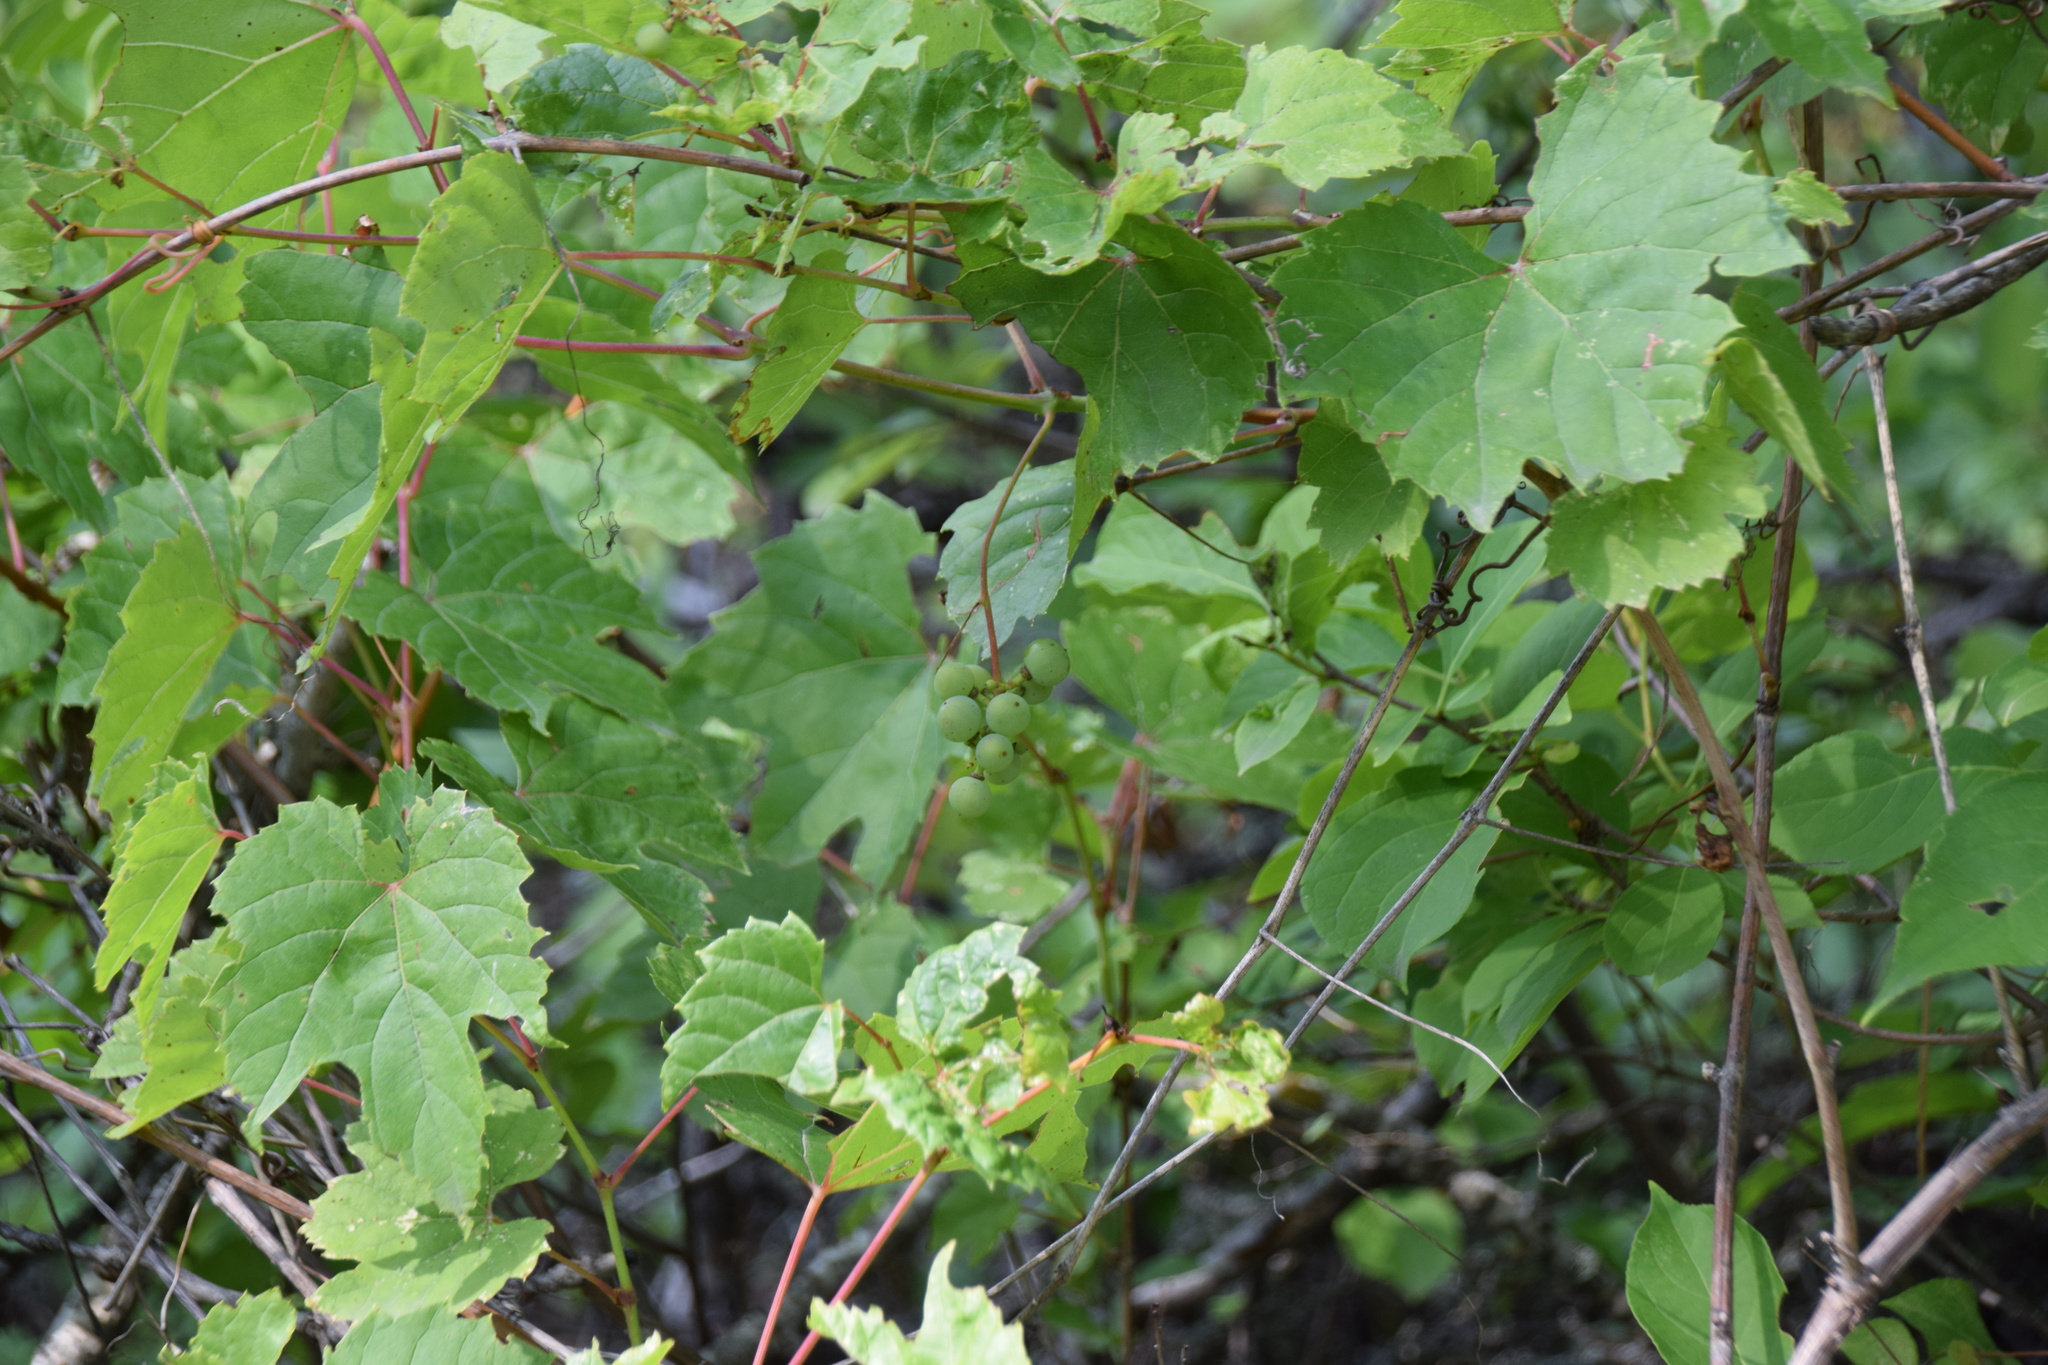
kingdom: Plantae
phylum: Tracheophyta
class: Magnoliopsida
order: Vitales
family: Vitaceae
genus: Vitis
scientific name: Vitis riparia
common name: Frost grape
